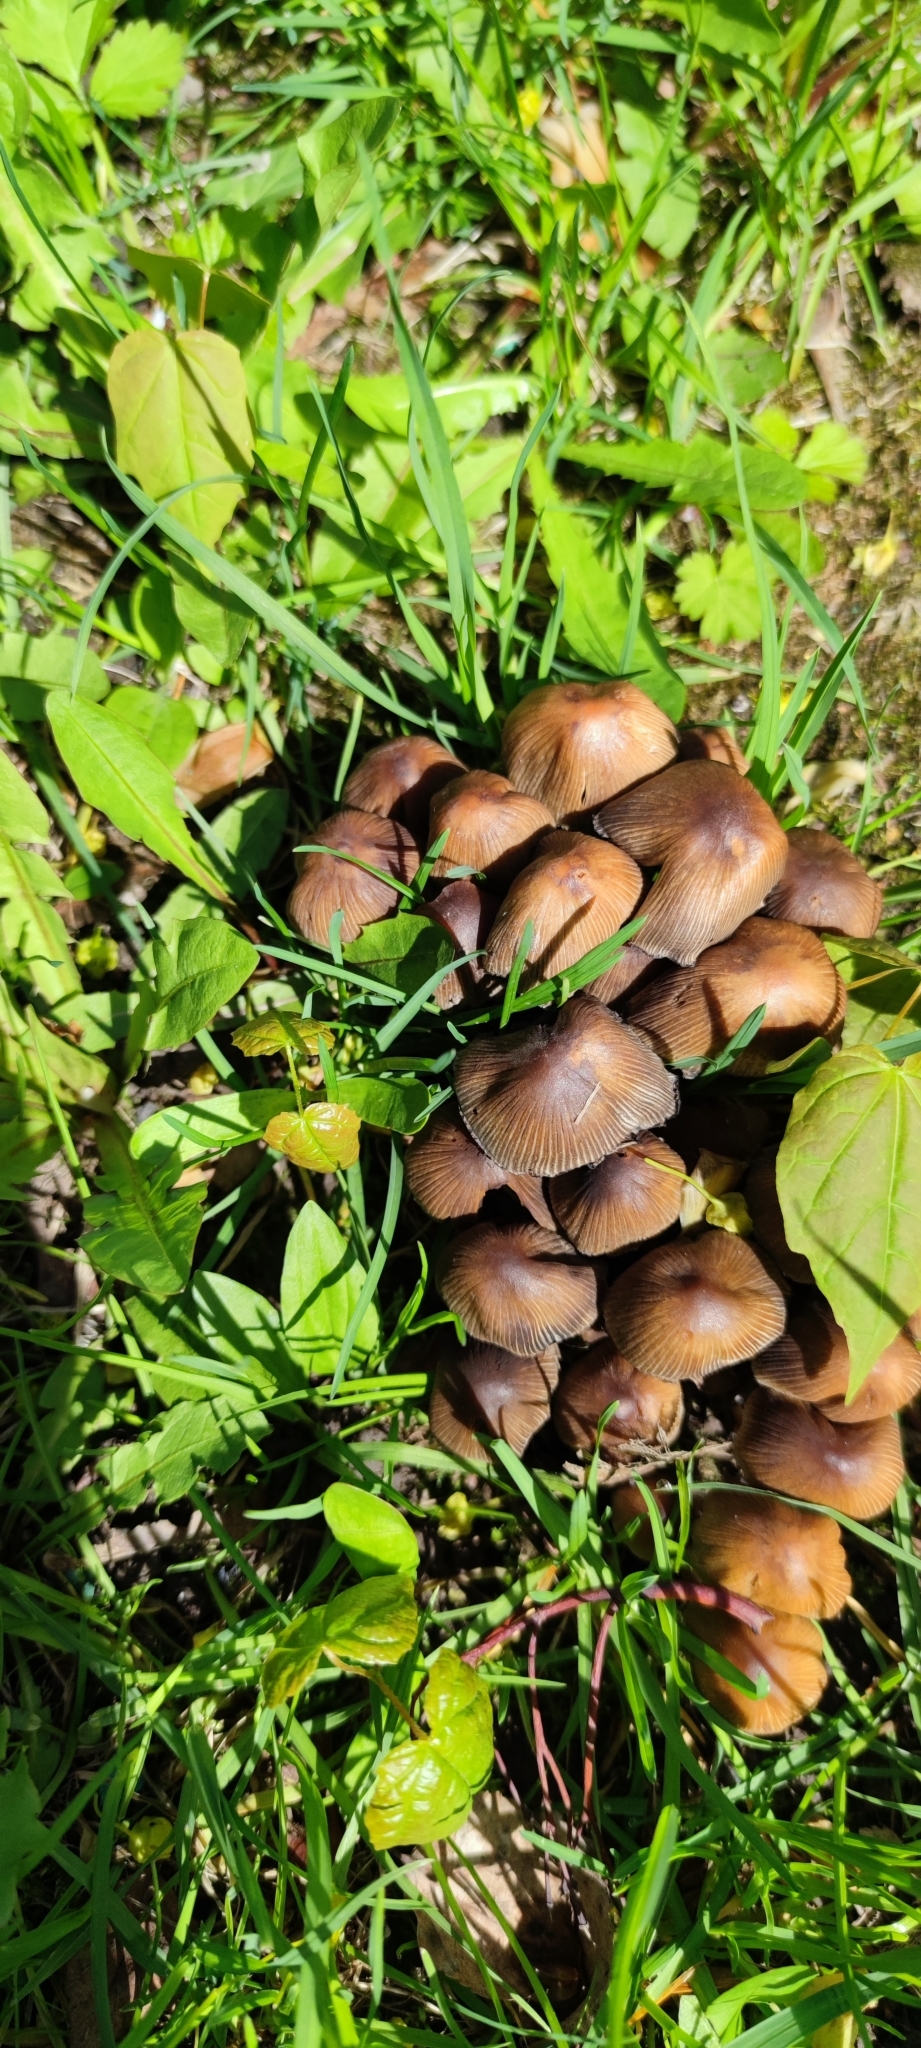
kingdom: Fungi
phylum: Basidiomycota
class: Agaricomycetes
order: Agaricales
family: Psathyrellaceae
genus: Coprinellus
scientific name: Coprinellus micaceus
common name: Glistening ink-cap
